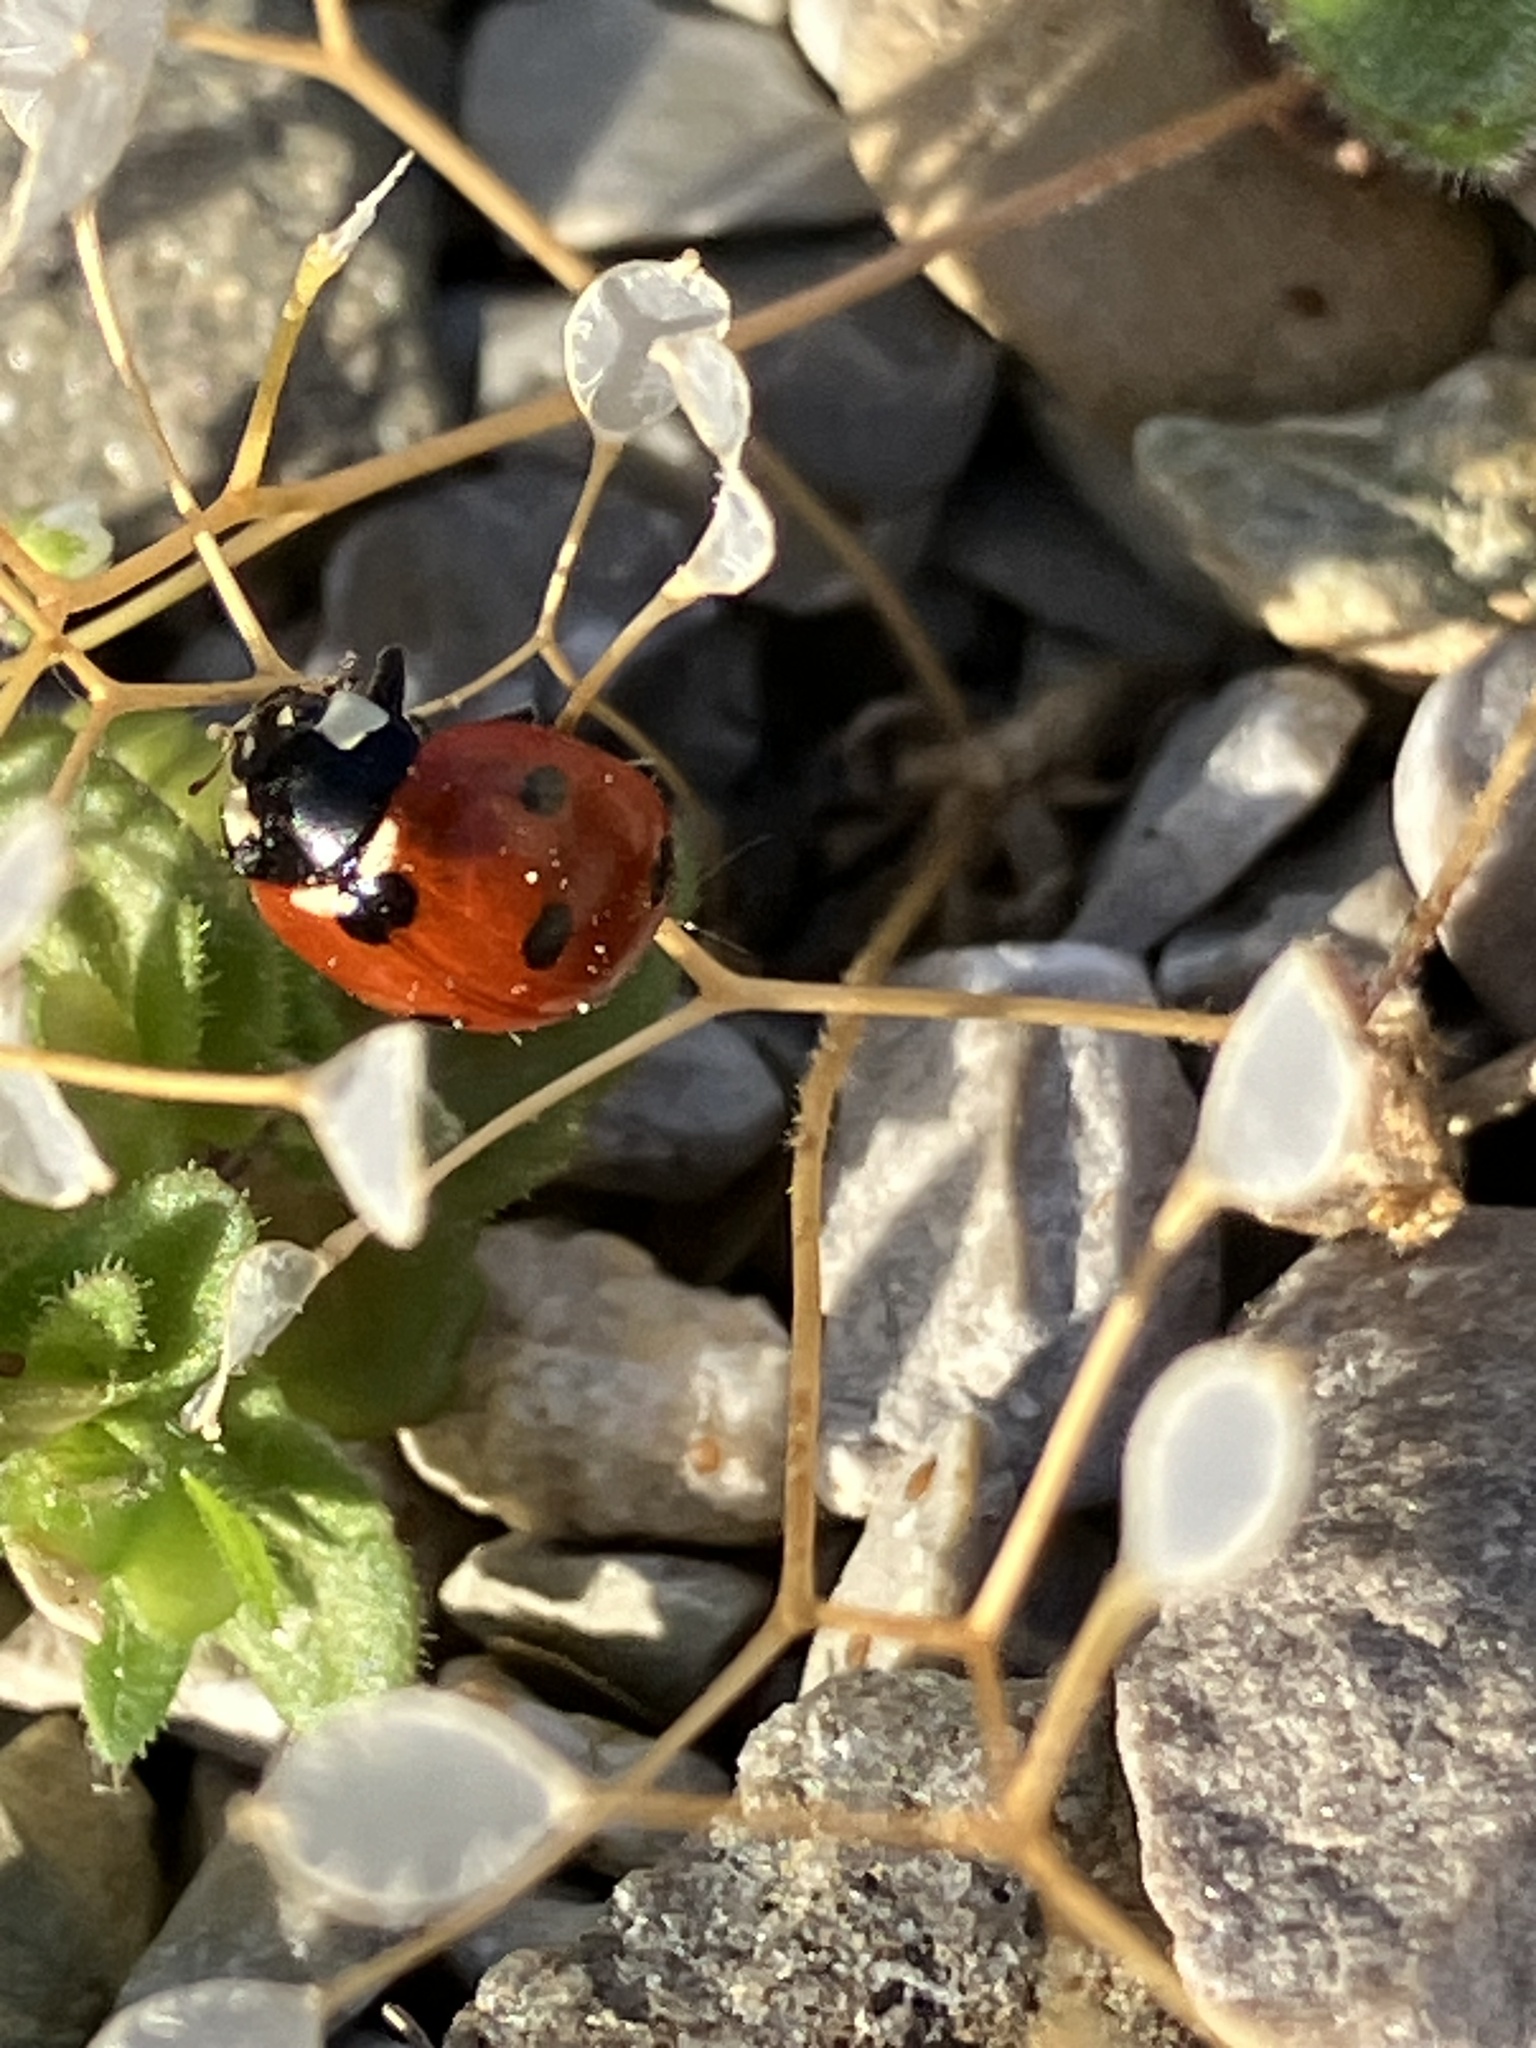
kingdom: Animalia
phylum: Arthropoda
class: Insecta
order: Coleoptera
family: Coccinellidae
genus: Coccinella
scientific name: Coccinella septempunctata
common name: Sevenspotted lady beetle
